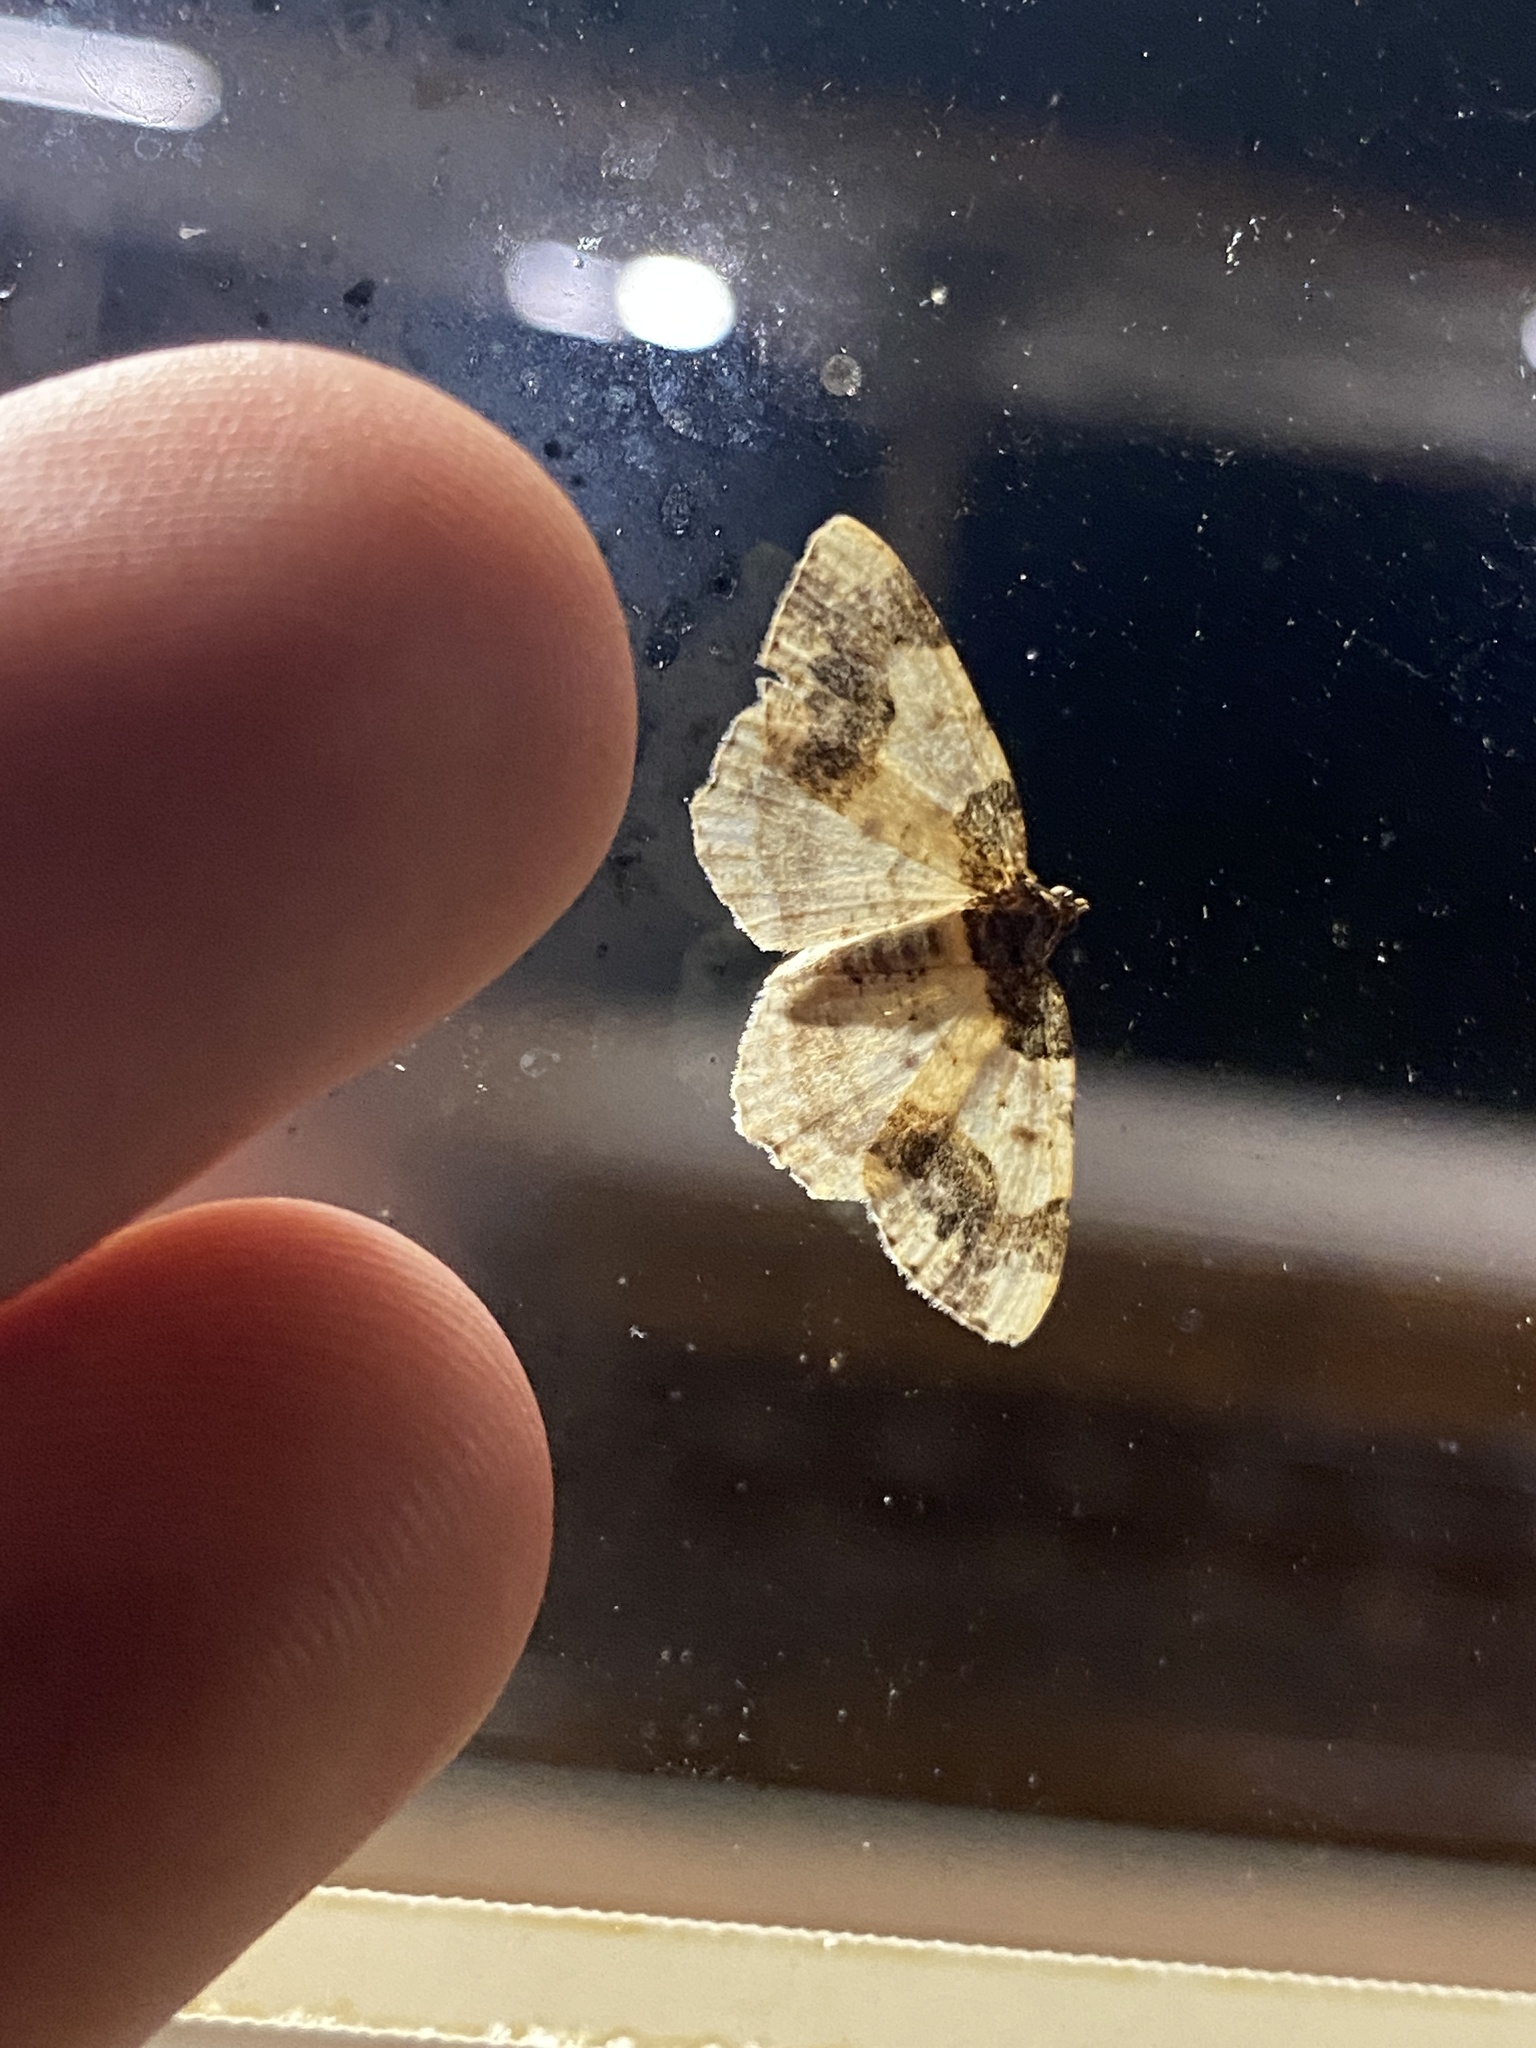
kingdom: Animalia
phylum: Arthropoda
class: Insecta
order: Lepidoptera
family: Geometridae
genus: Ligdia
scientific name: Ligdia adustata
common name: Scorched carpet
